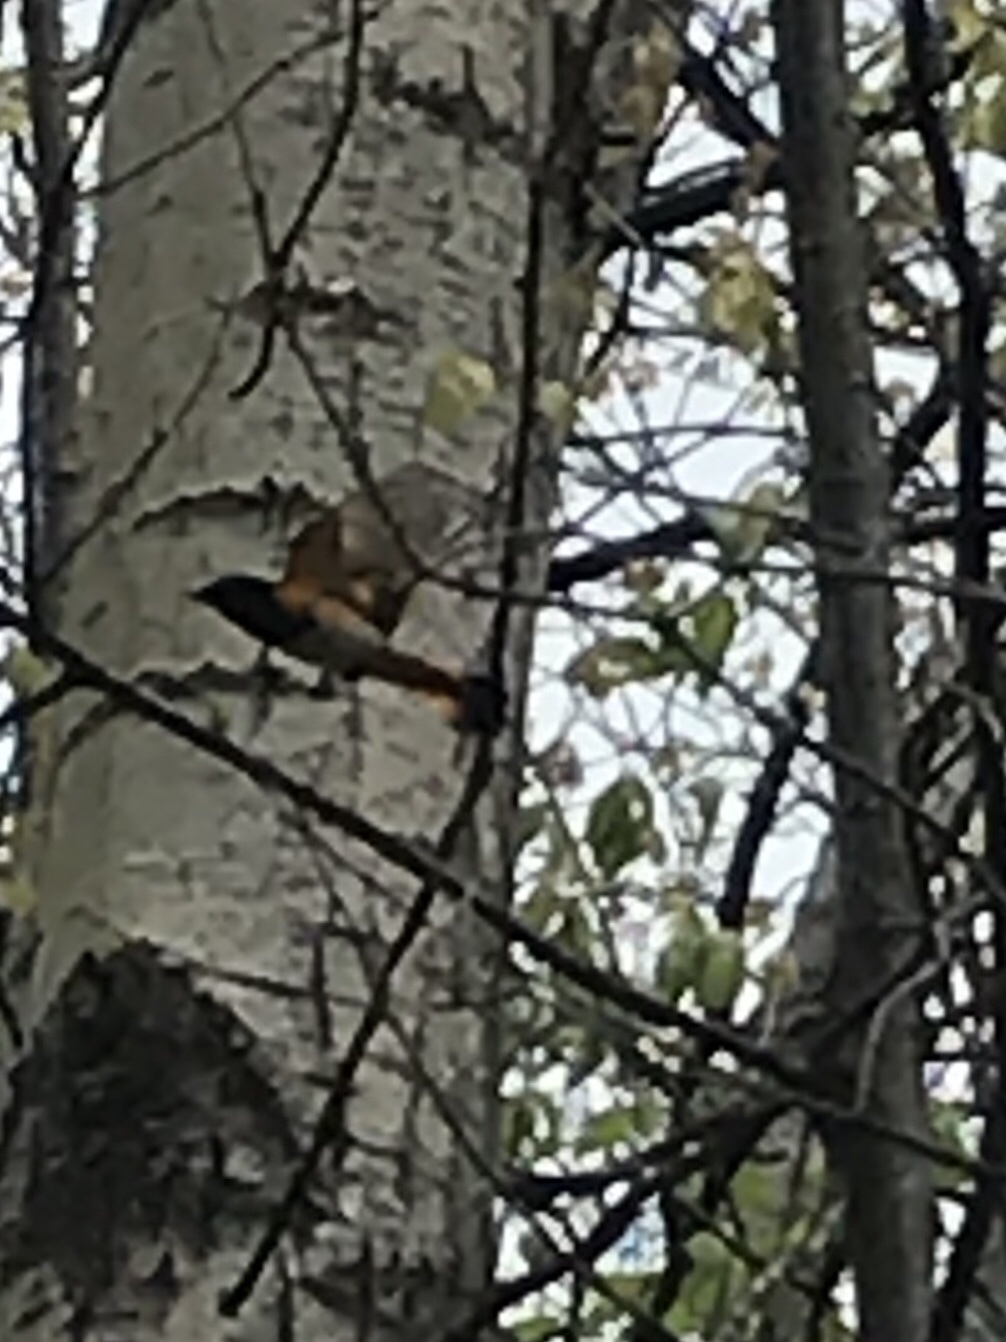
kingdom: Animalia
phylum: Chordata
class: Aves
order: Passeriformes
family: Parulidae
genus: Setophaga
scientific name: Setophaga ruticilla
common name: American redstart
